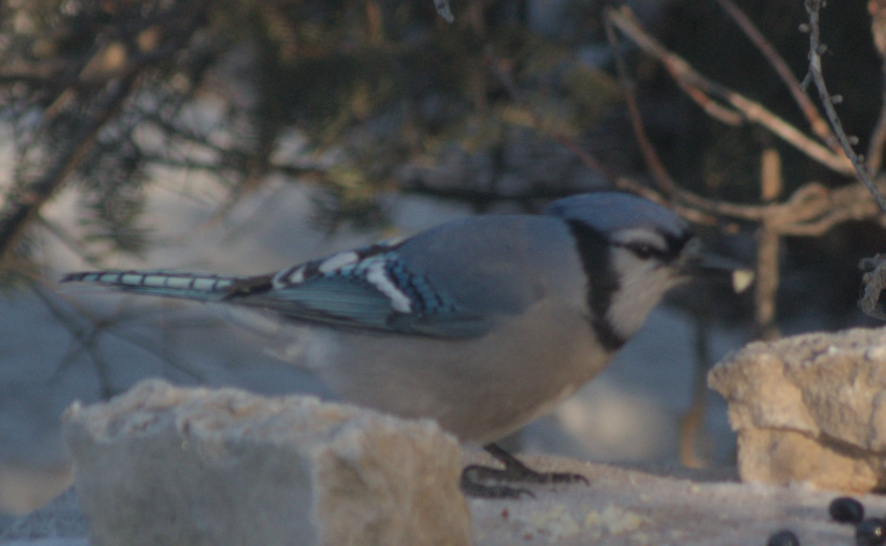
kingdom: Animalia
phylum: Chordata
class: Aves
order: Passeriformes
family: Corvidae
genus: Cyanocitta
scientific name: Cyanocitta cristata
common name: Blue jay
